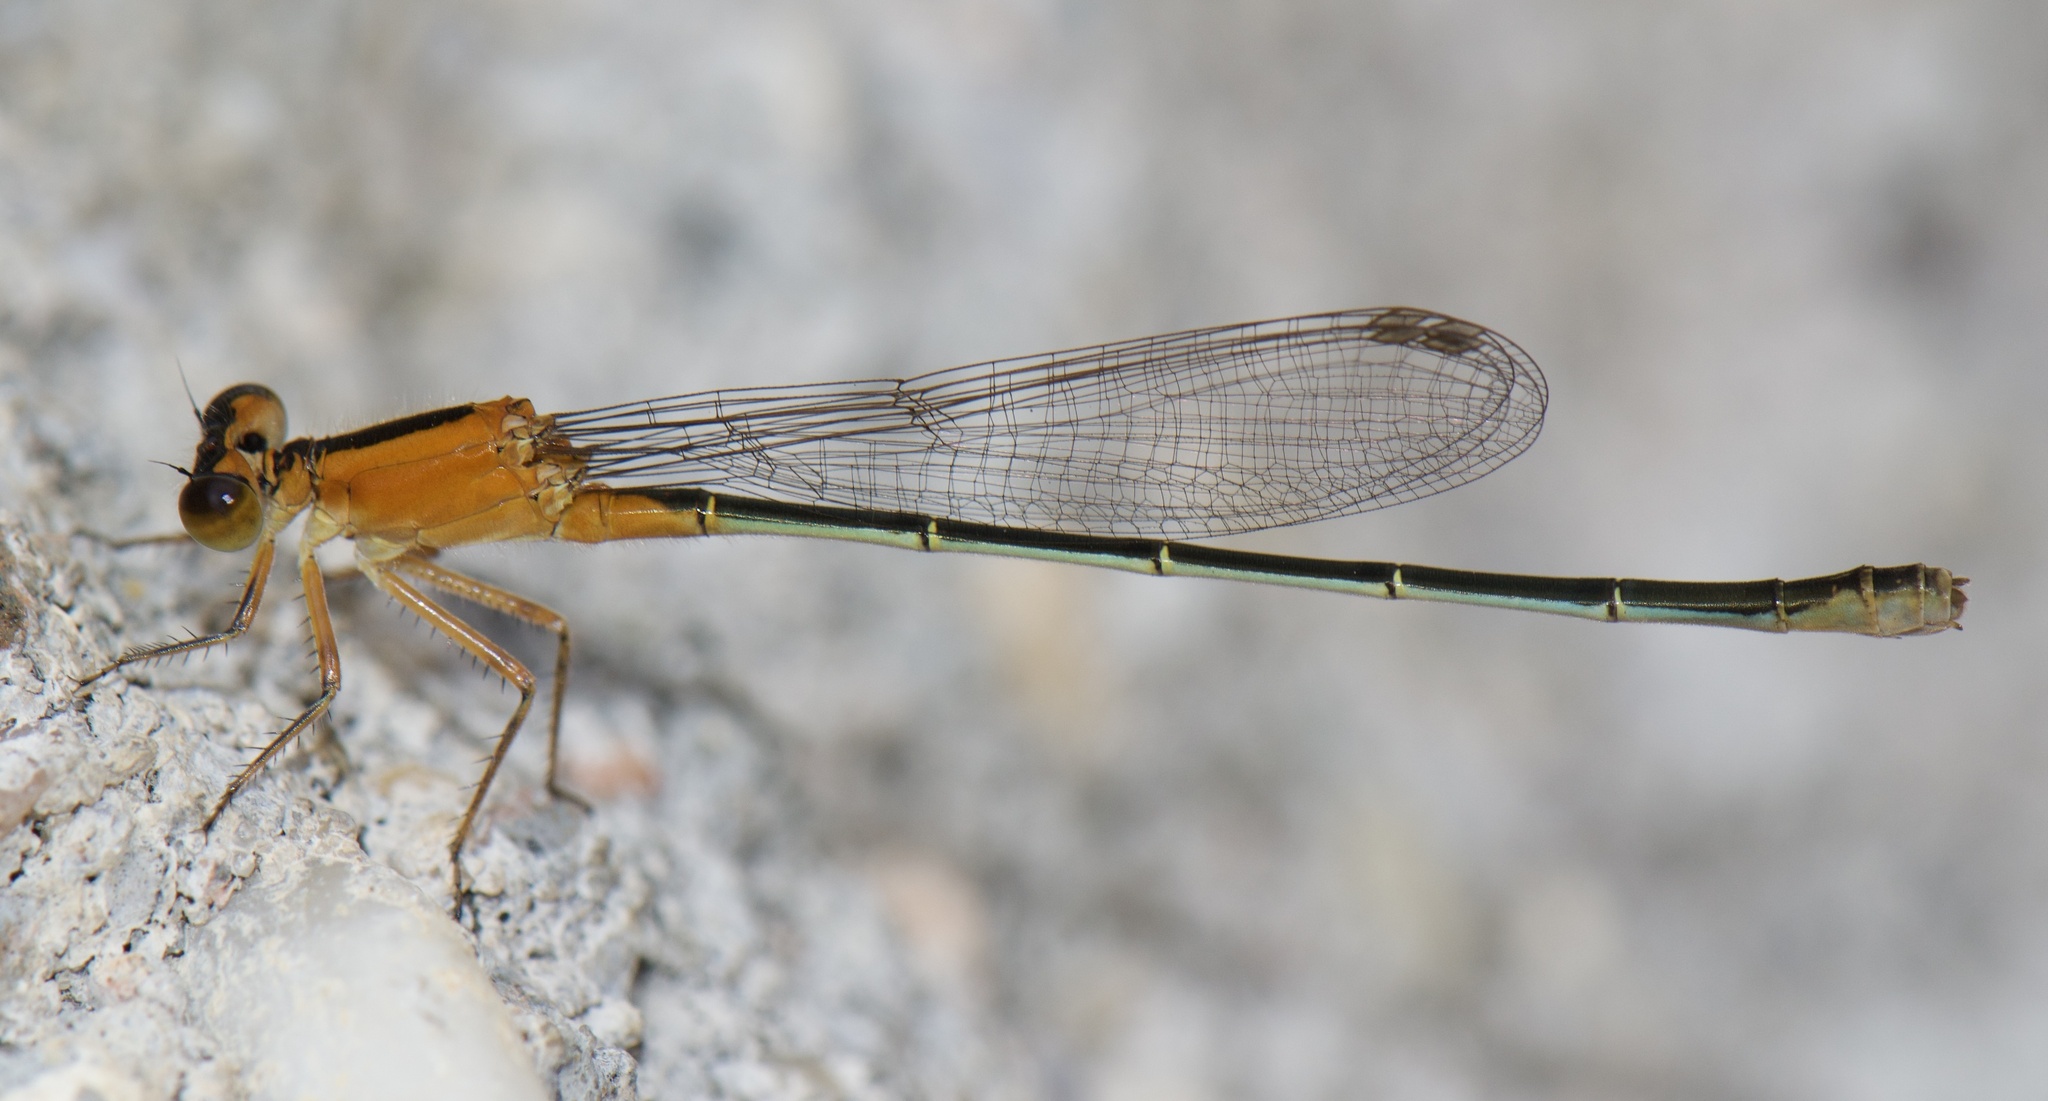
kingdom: Animalia
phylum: Arthropoda
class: Insecta
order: Odonata
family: Coenagrionidae
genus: Ischnura
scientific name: Ischnura ramburii
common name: Rambur's forktail
